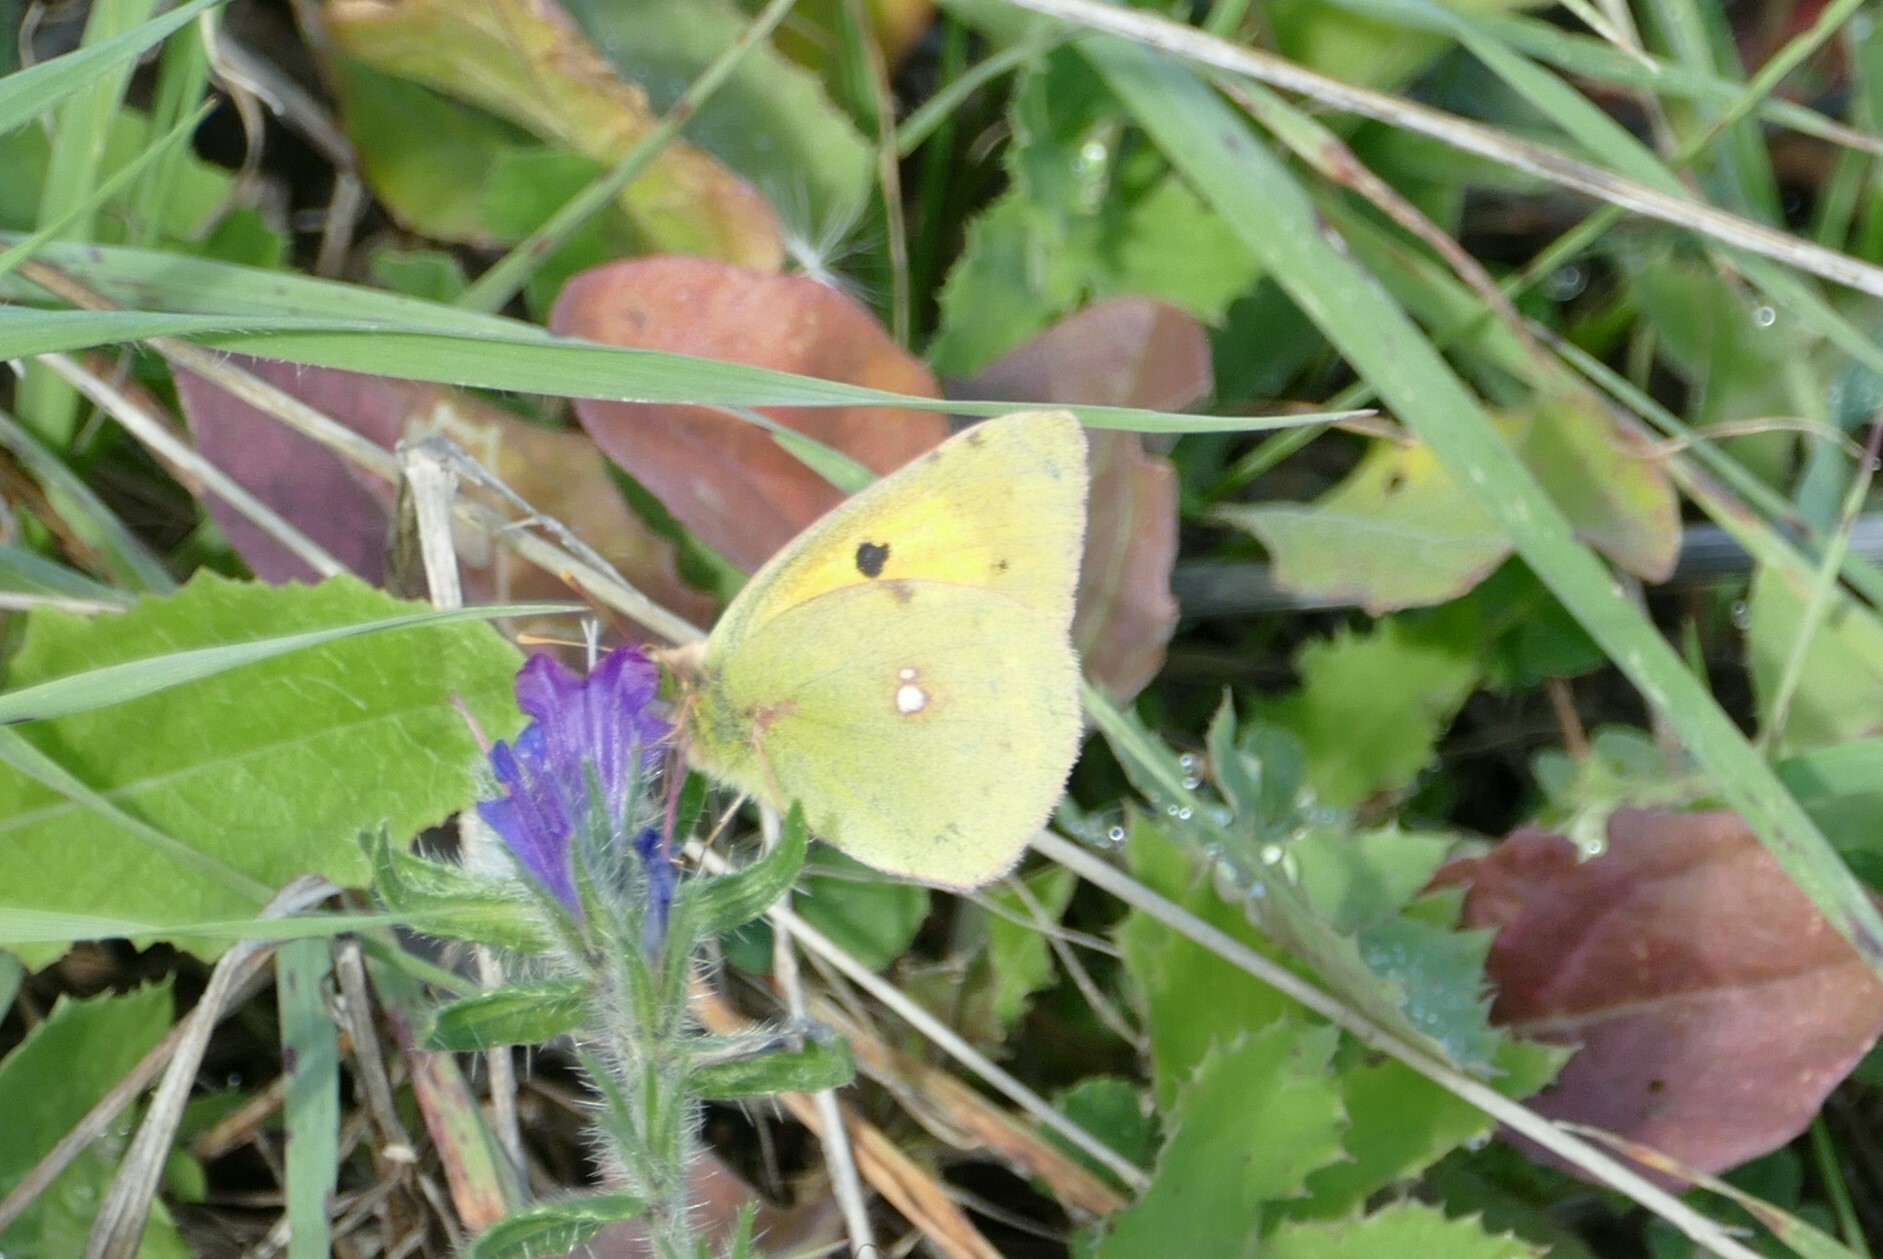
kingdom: Animalia
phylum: Arthropoda
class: Insecta
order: Lepidoptera
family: Pieridae
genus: Colias
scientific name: Colias croceus
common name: Clouded yellow
